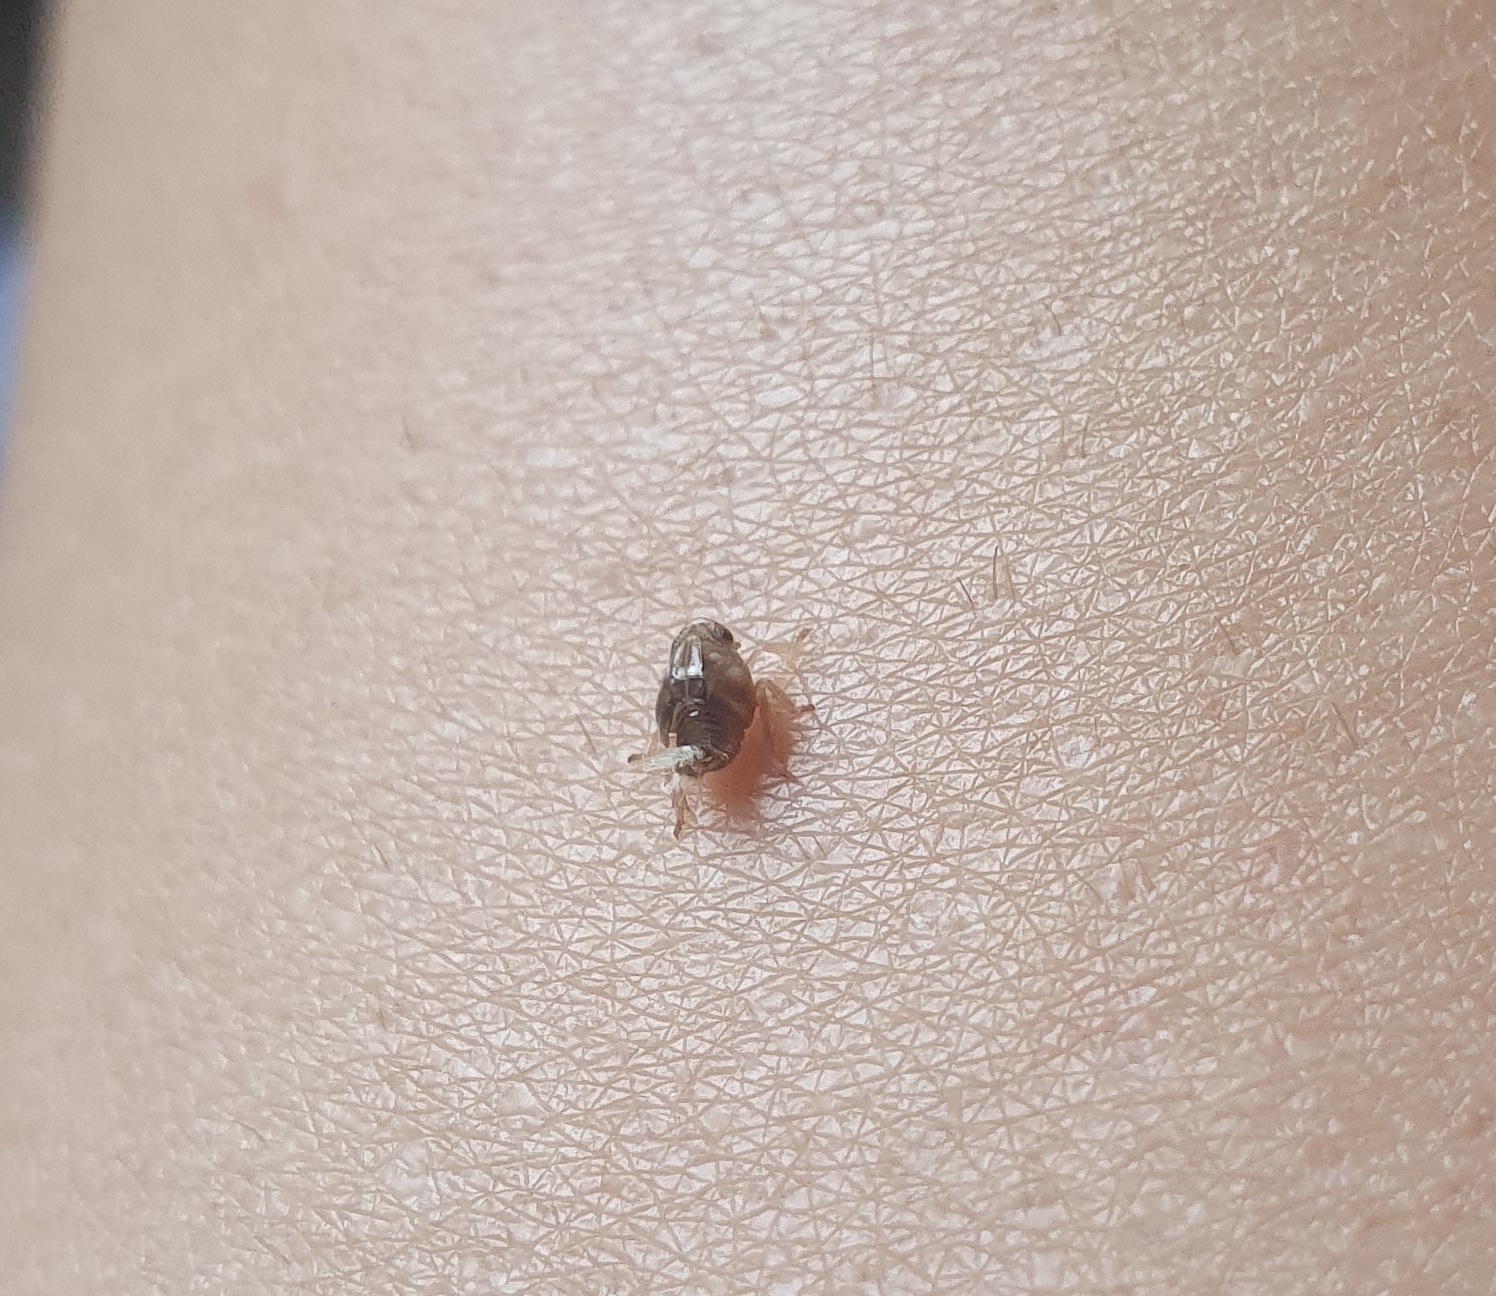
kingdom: Animalia
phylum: Arthropoda
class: Insecta
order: Hemiptera
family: Ricaniidae
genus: Scolypopa
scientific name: Scolypopa australis
